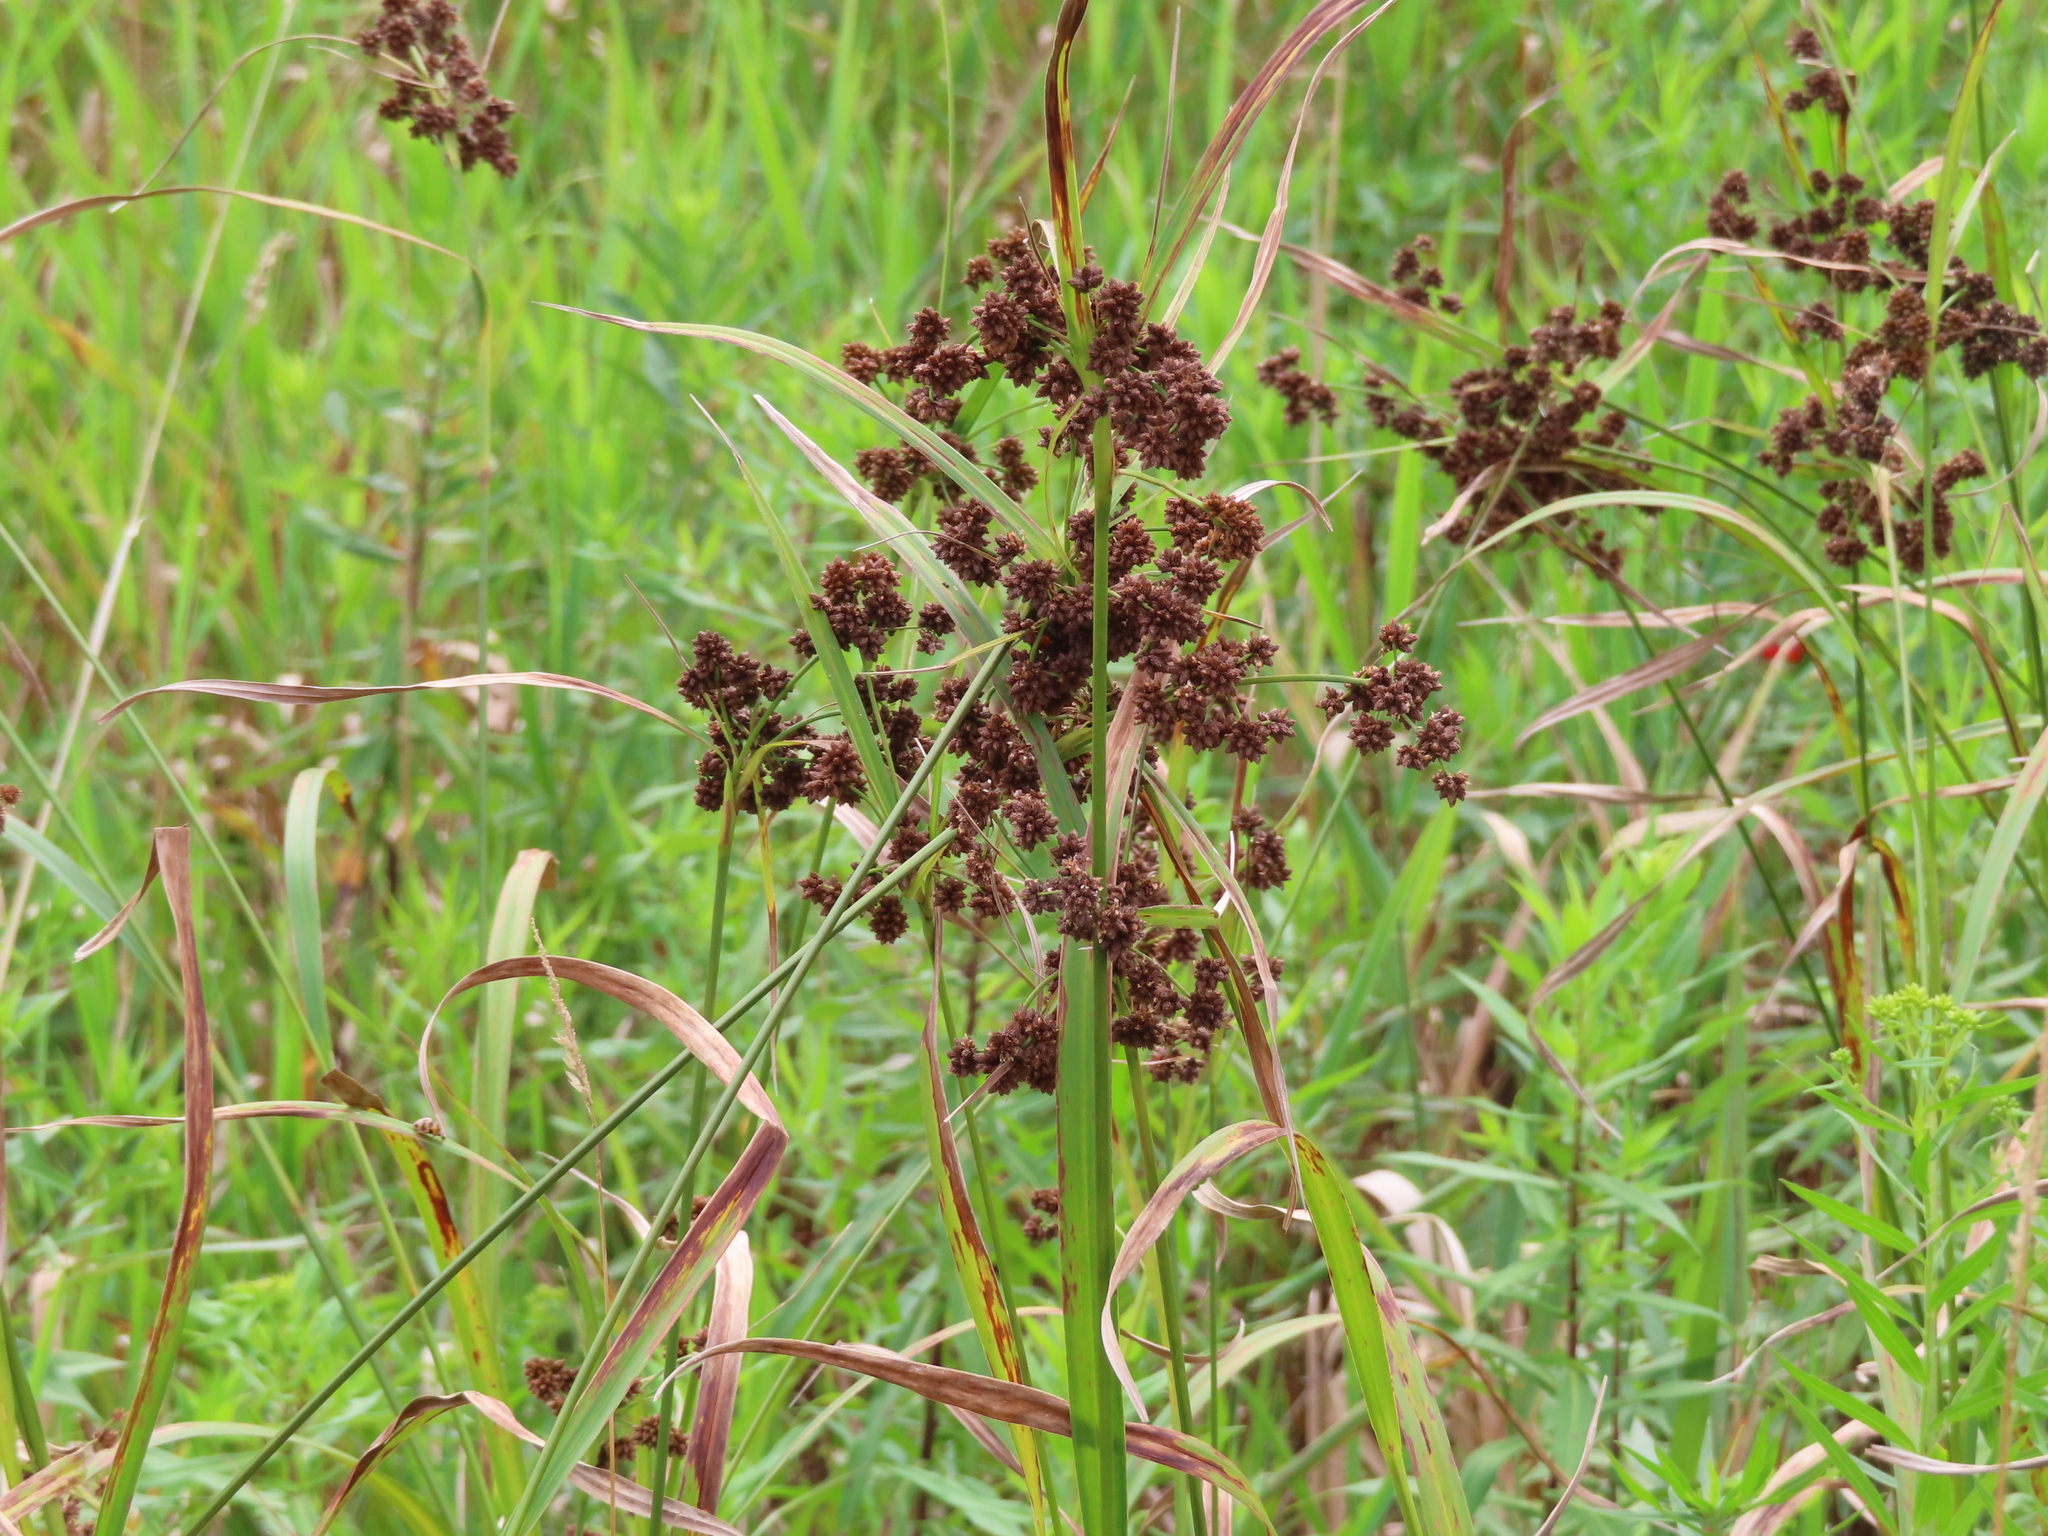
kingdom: Plantae
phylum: Tracheophyta
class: Liliopsida
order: Poales
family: Cyperaceae
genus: Scirpus
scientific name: Scirpus atrovirens
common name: Black bulrush
